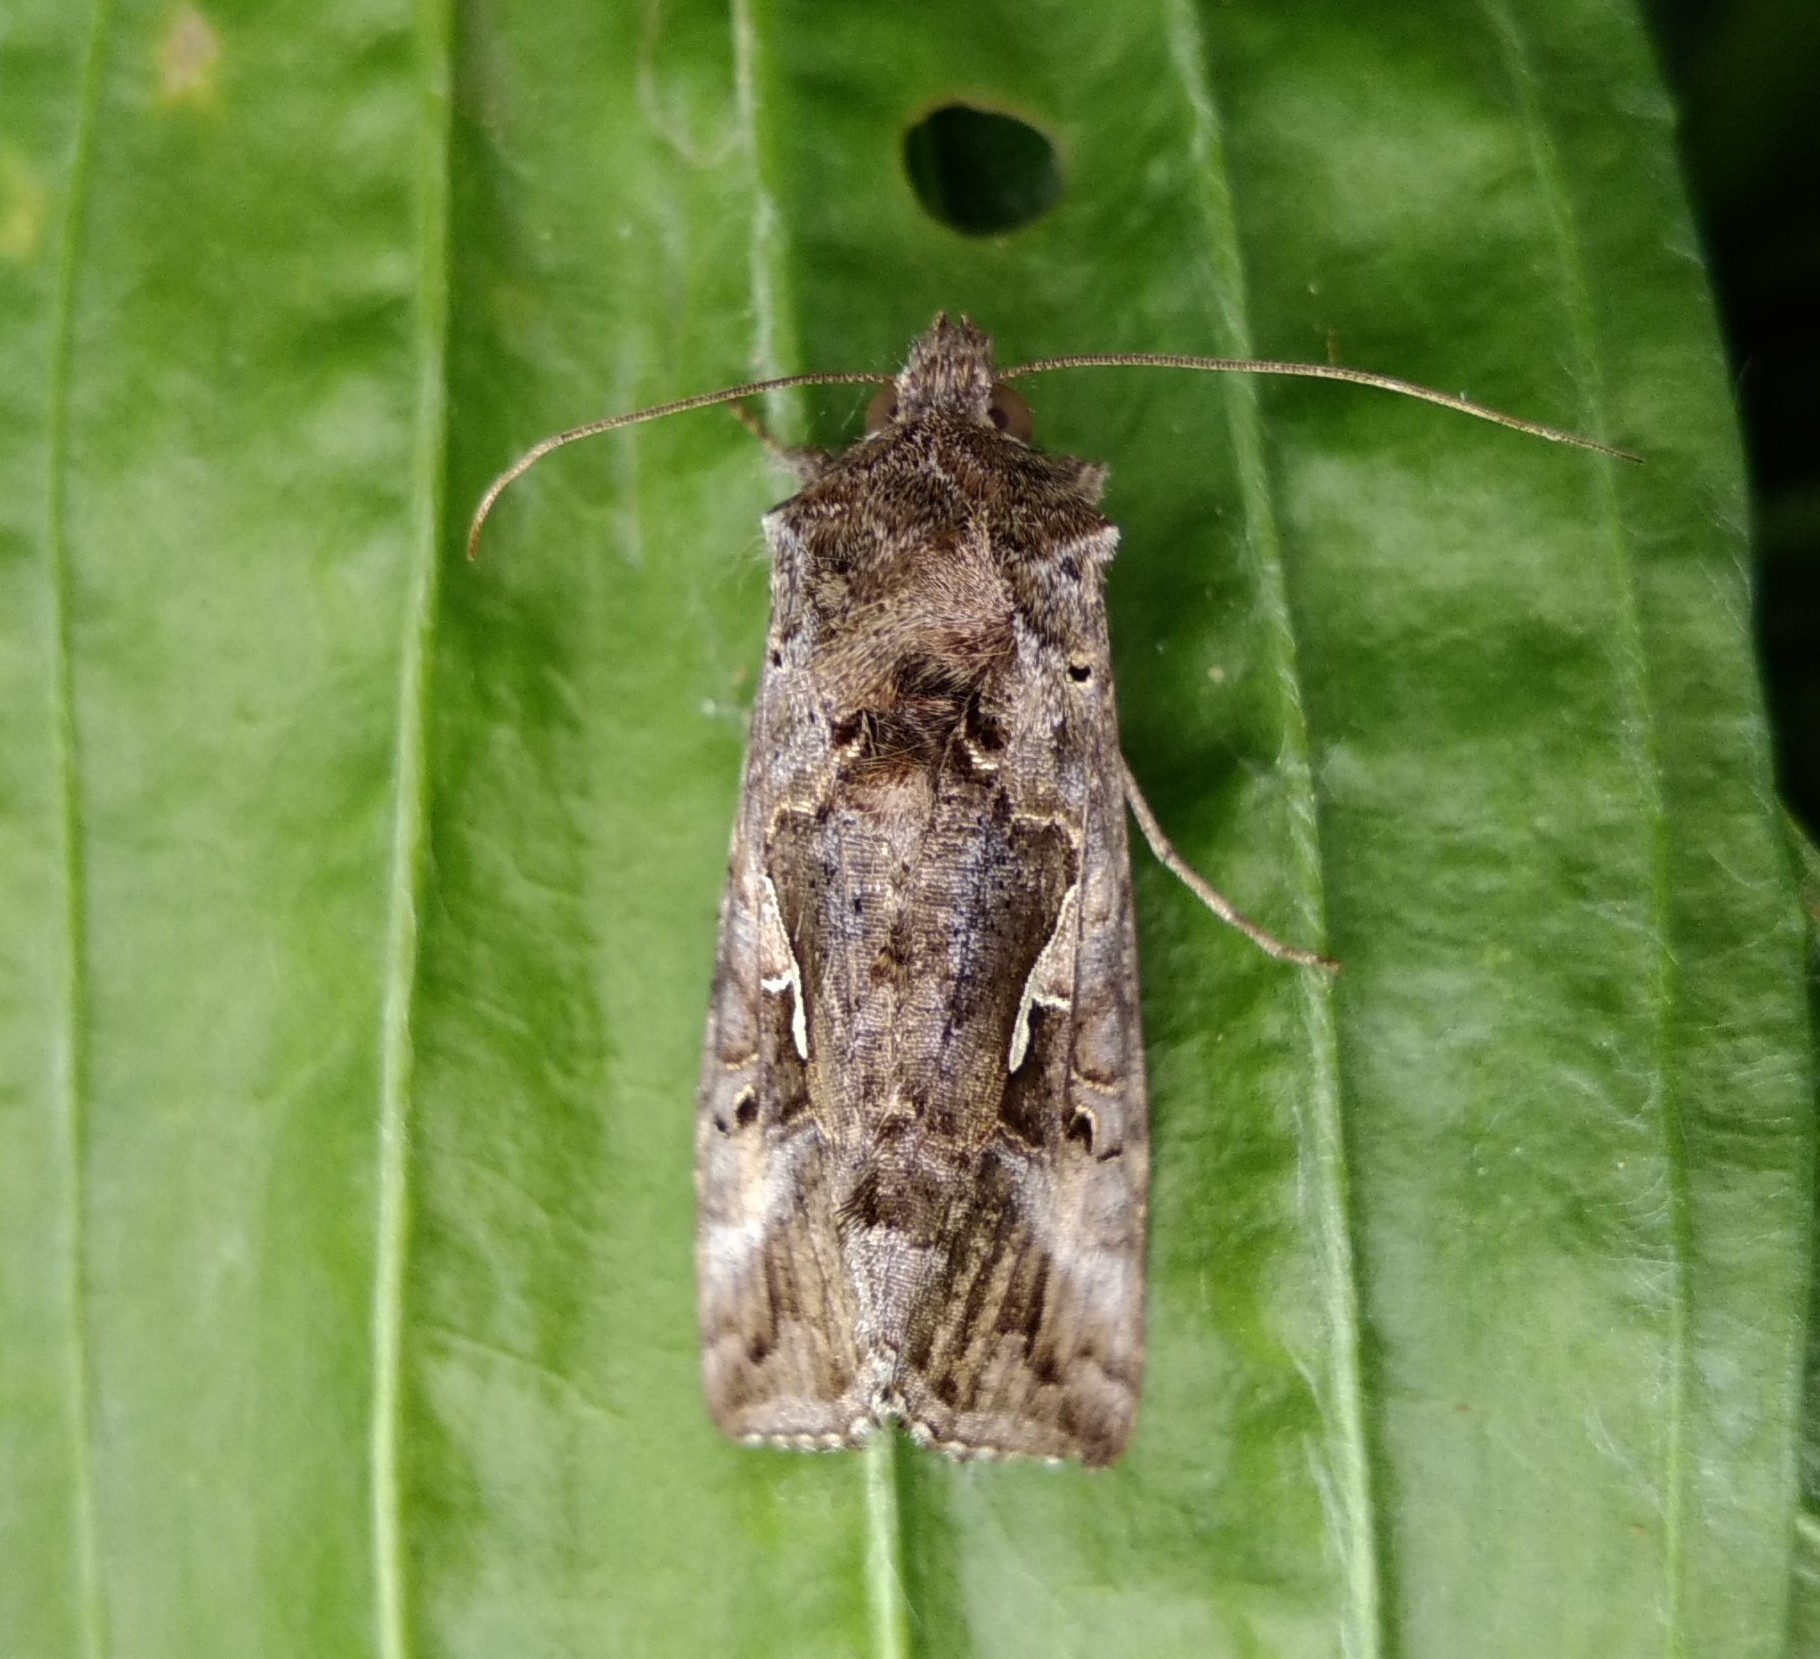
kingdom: Animalia
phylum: Arthropoda
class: Insecta
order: Lepidoptera
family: Noctuidae
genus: Autographa
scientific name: Autographa gamma
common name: Silver y
